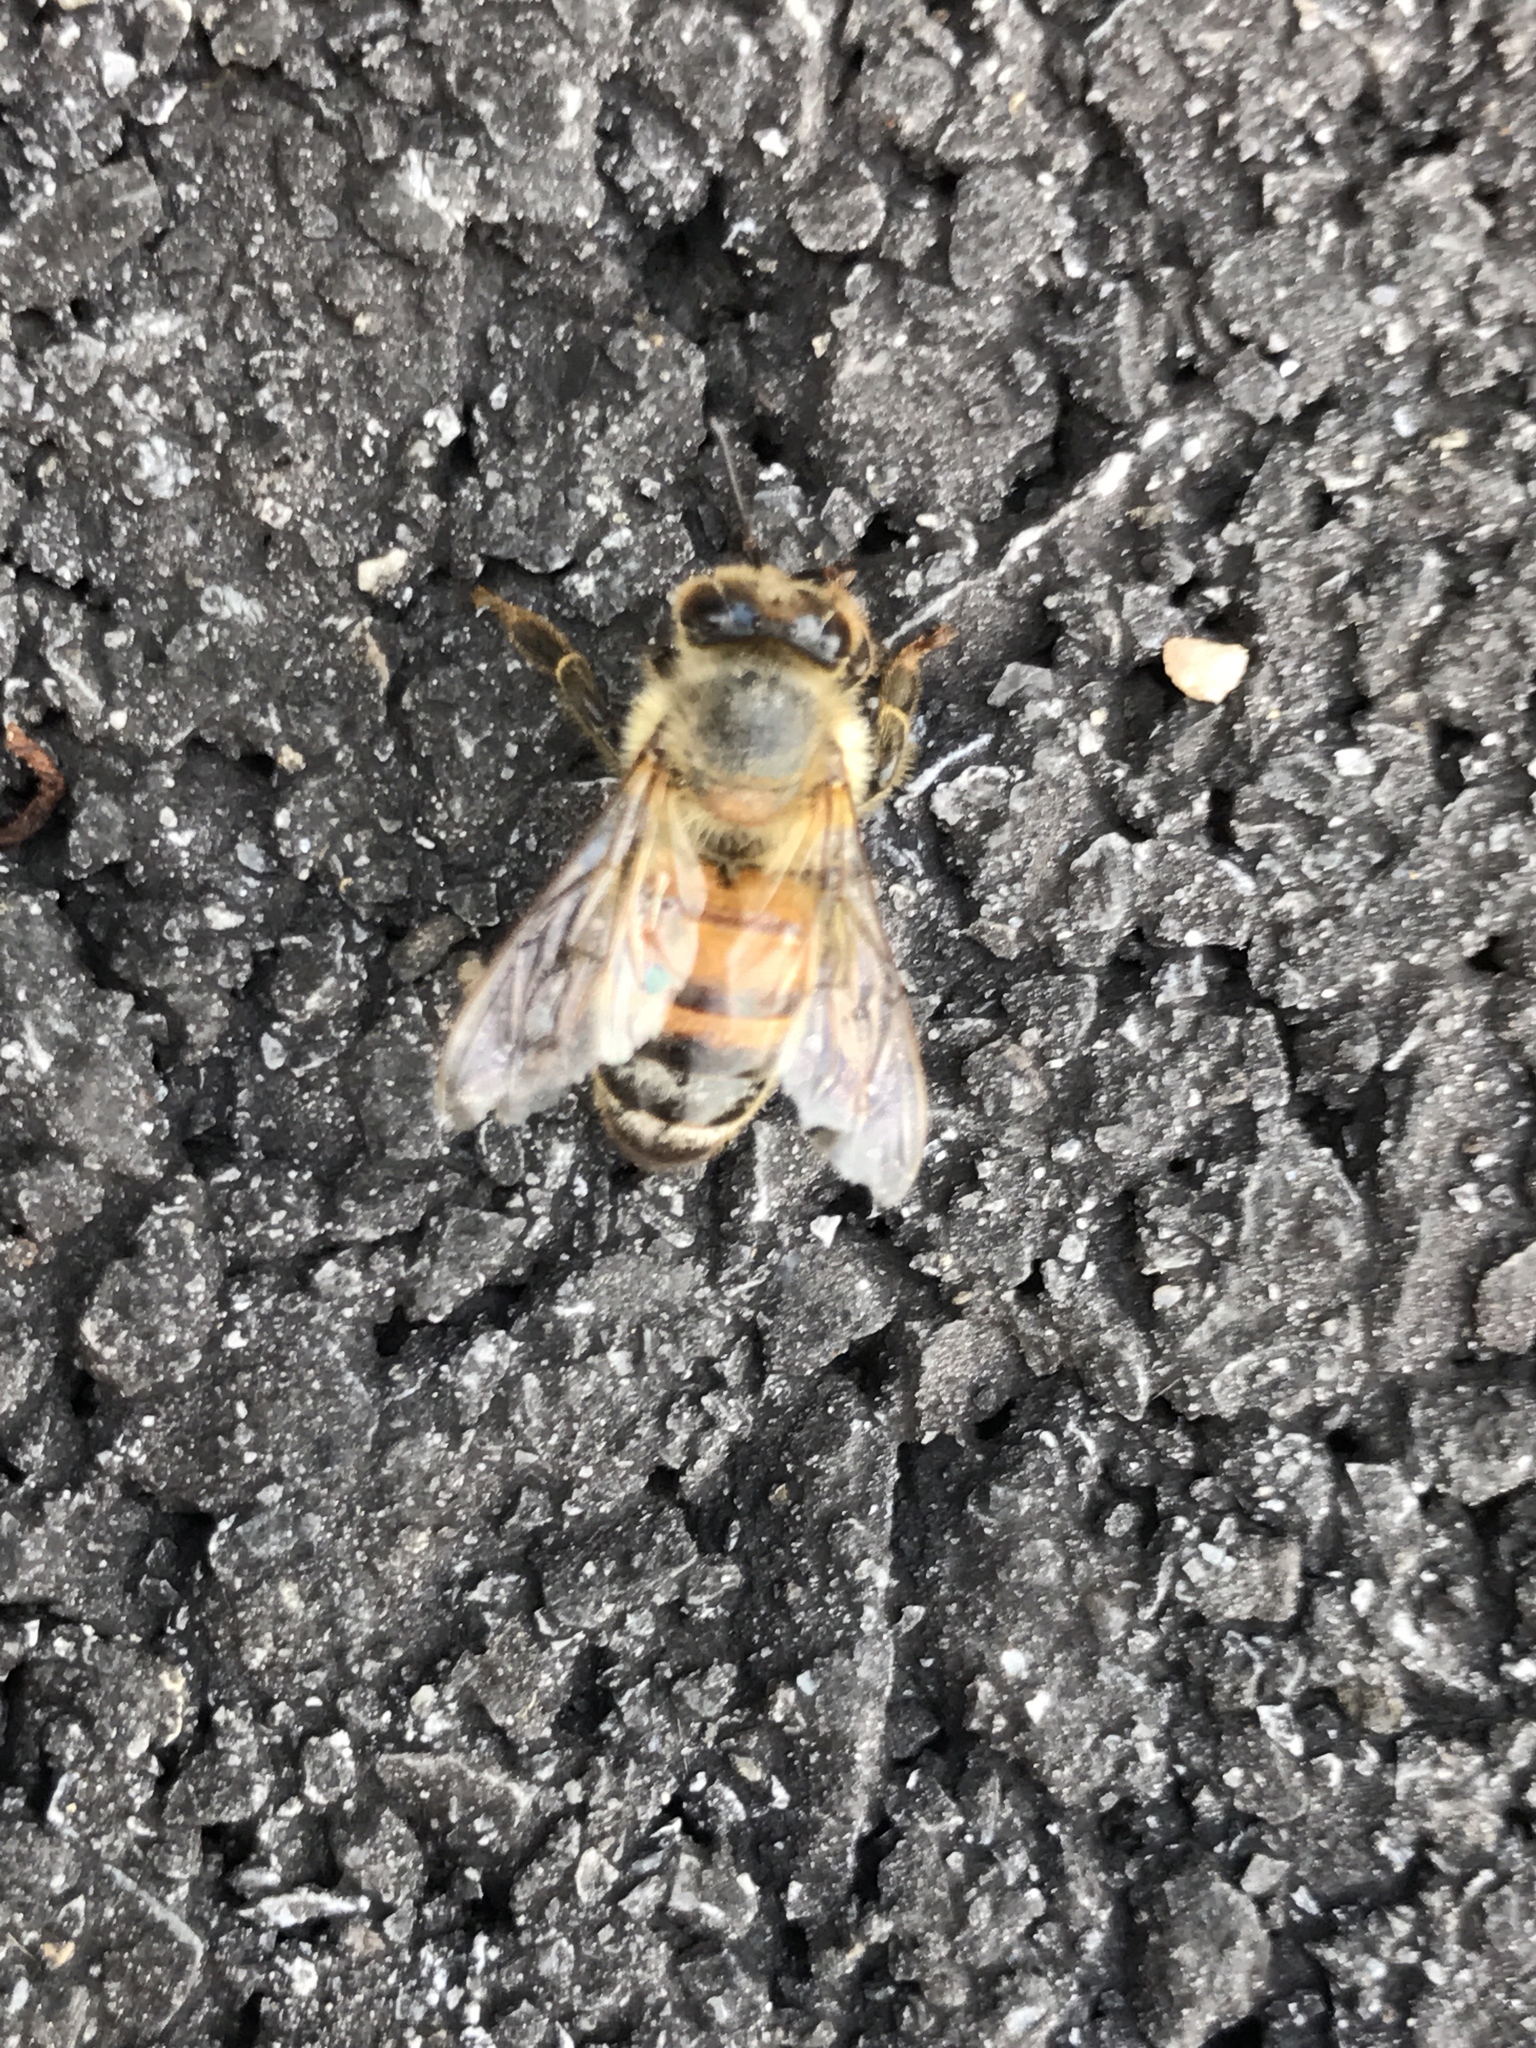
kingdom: Animalia
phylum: Arthropoda
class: Insecta
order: Hymenoptera
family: Apidae
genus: Apis
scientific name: Apis mellifera
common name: Honey bee
